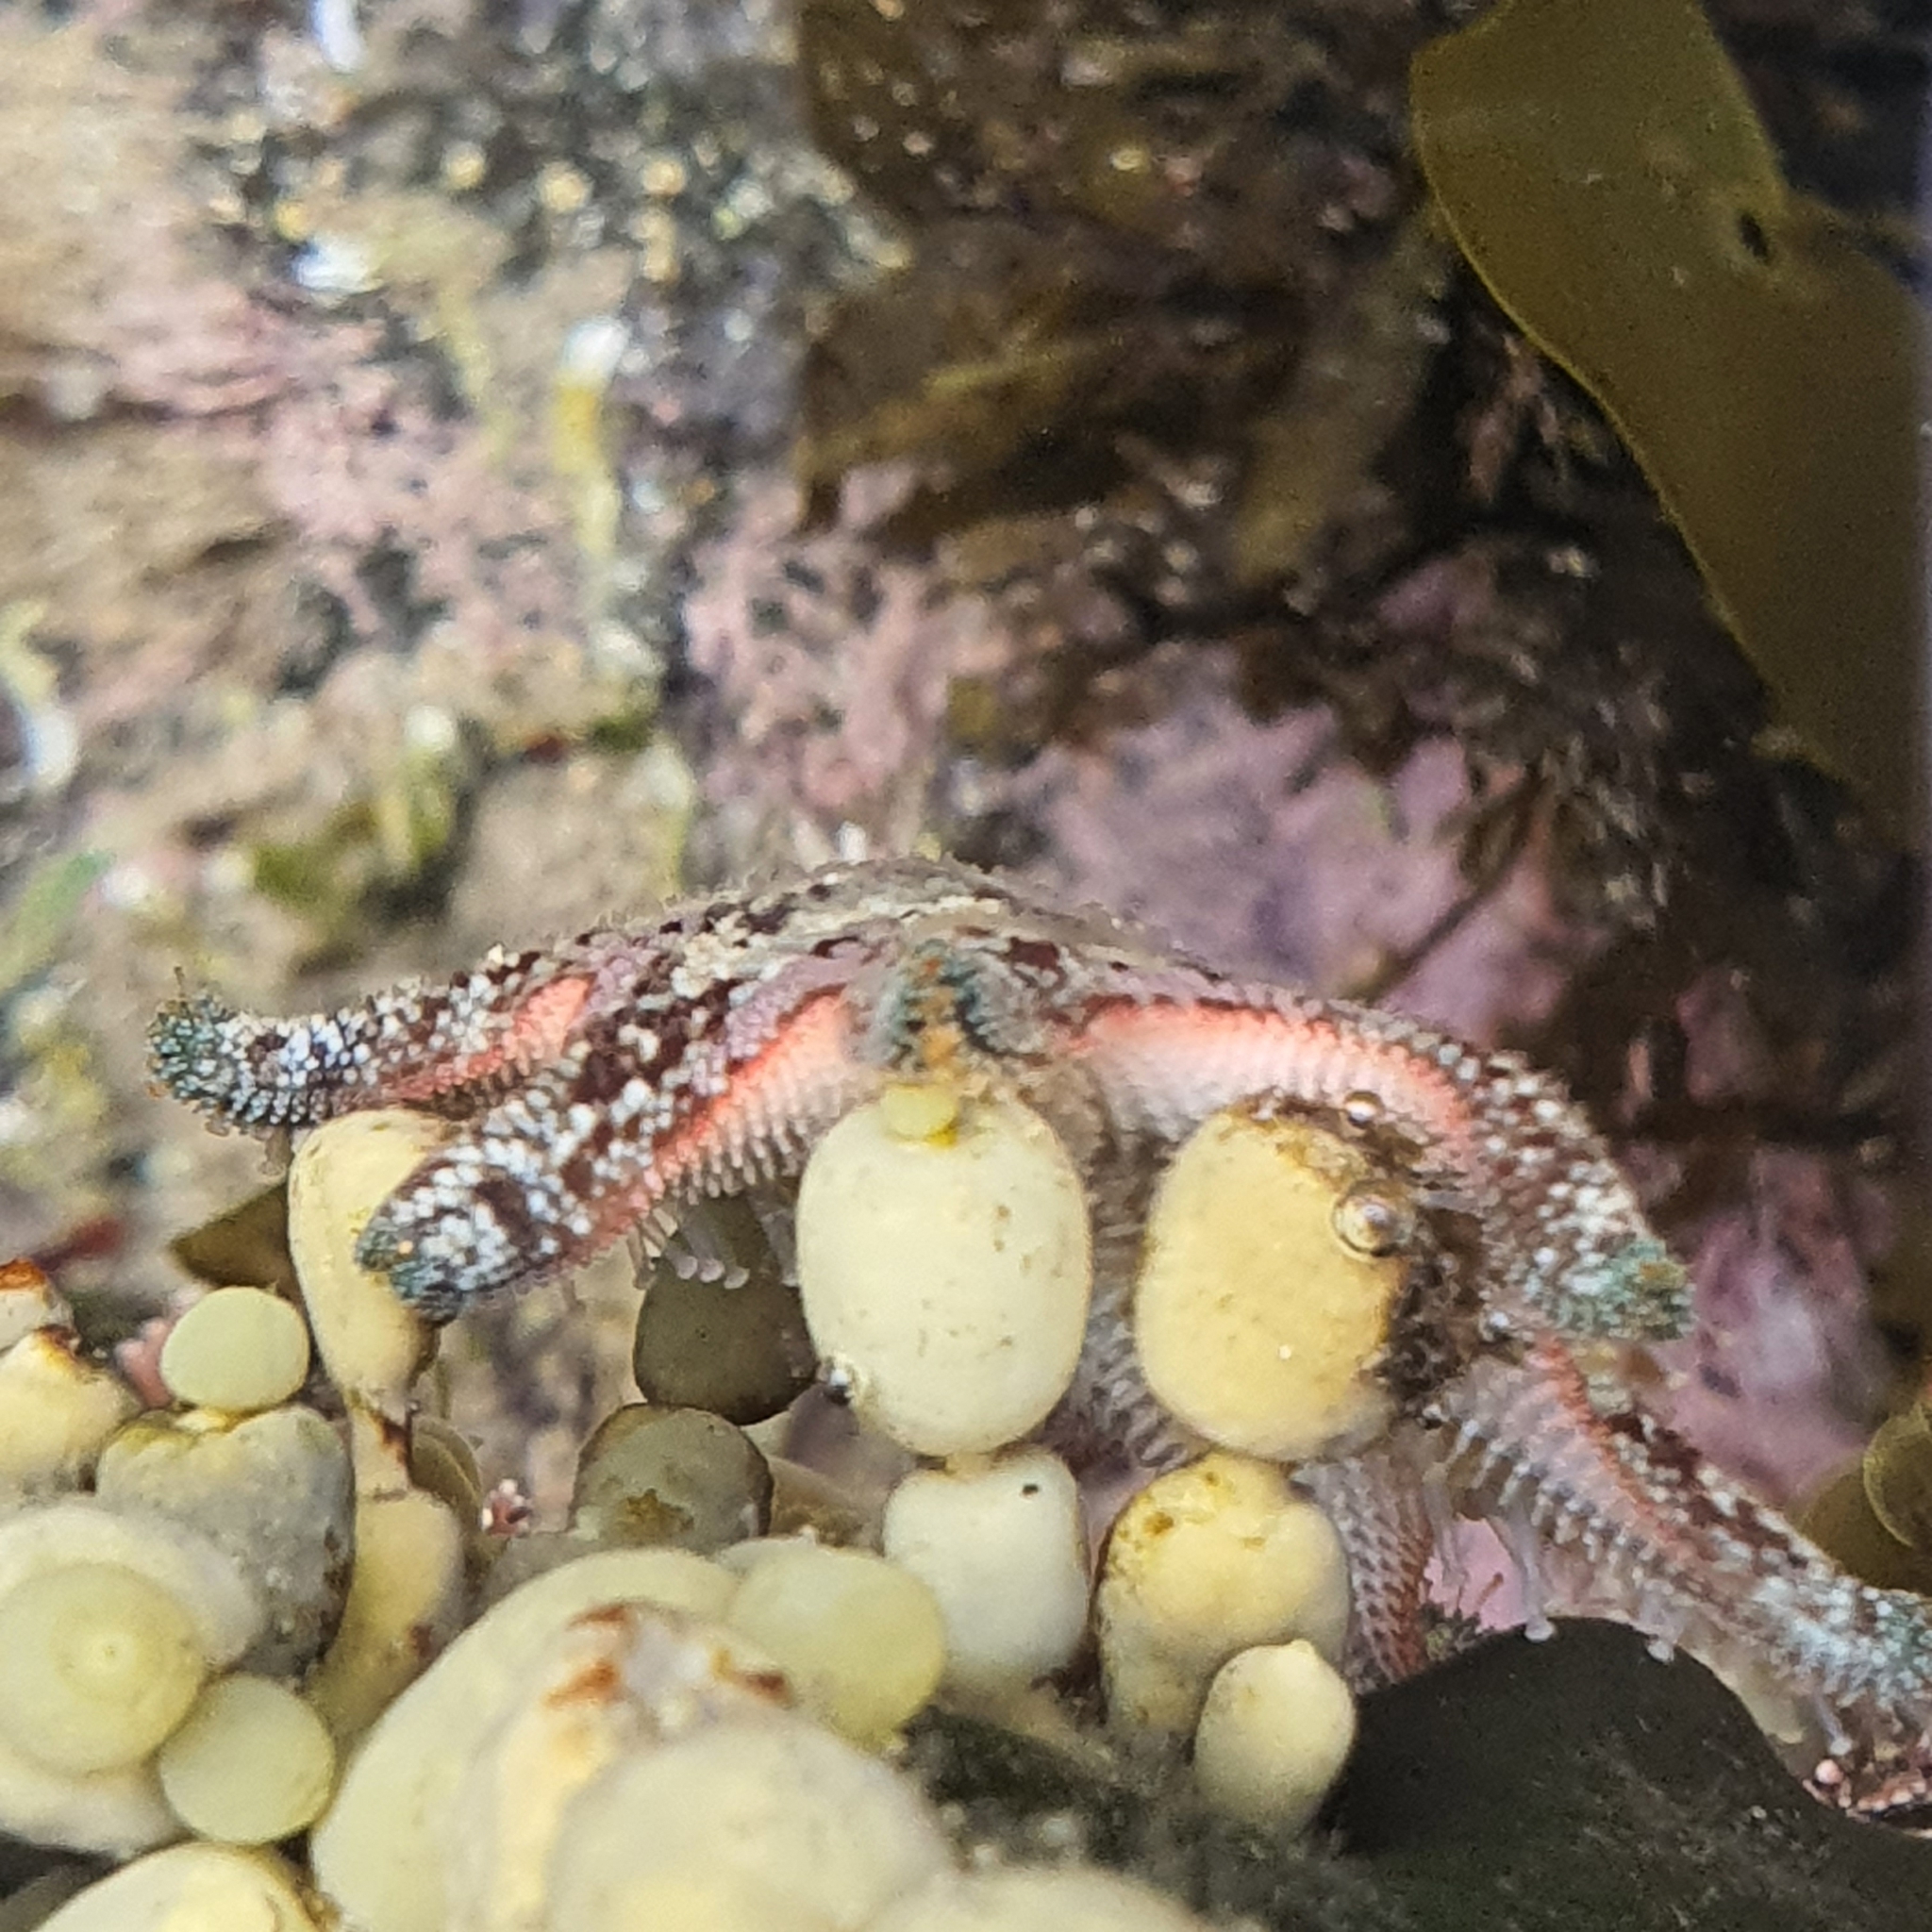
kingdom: Animalia
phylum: Echinodermata
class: Asteroidea
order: Valvatida
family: Asterinidae
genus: Meridiastra
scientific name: Meridiastra calcar
